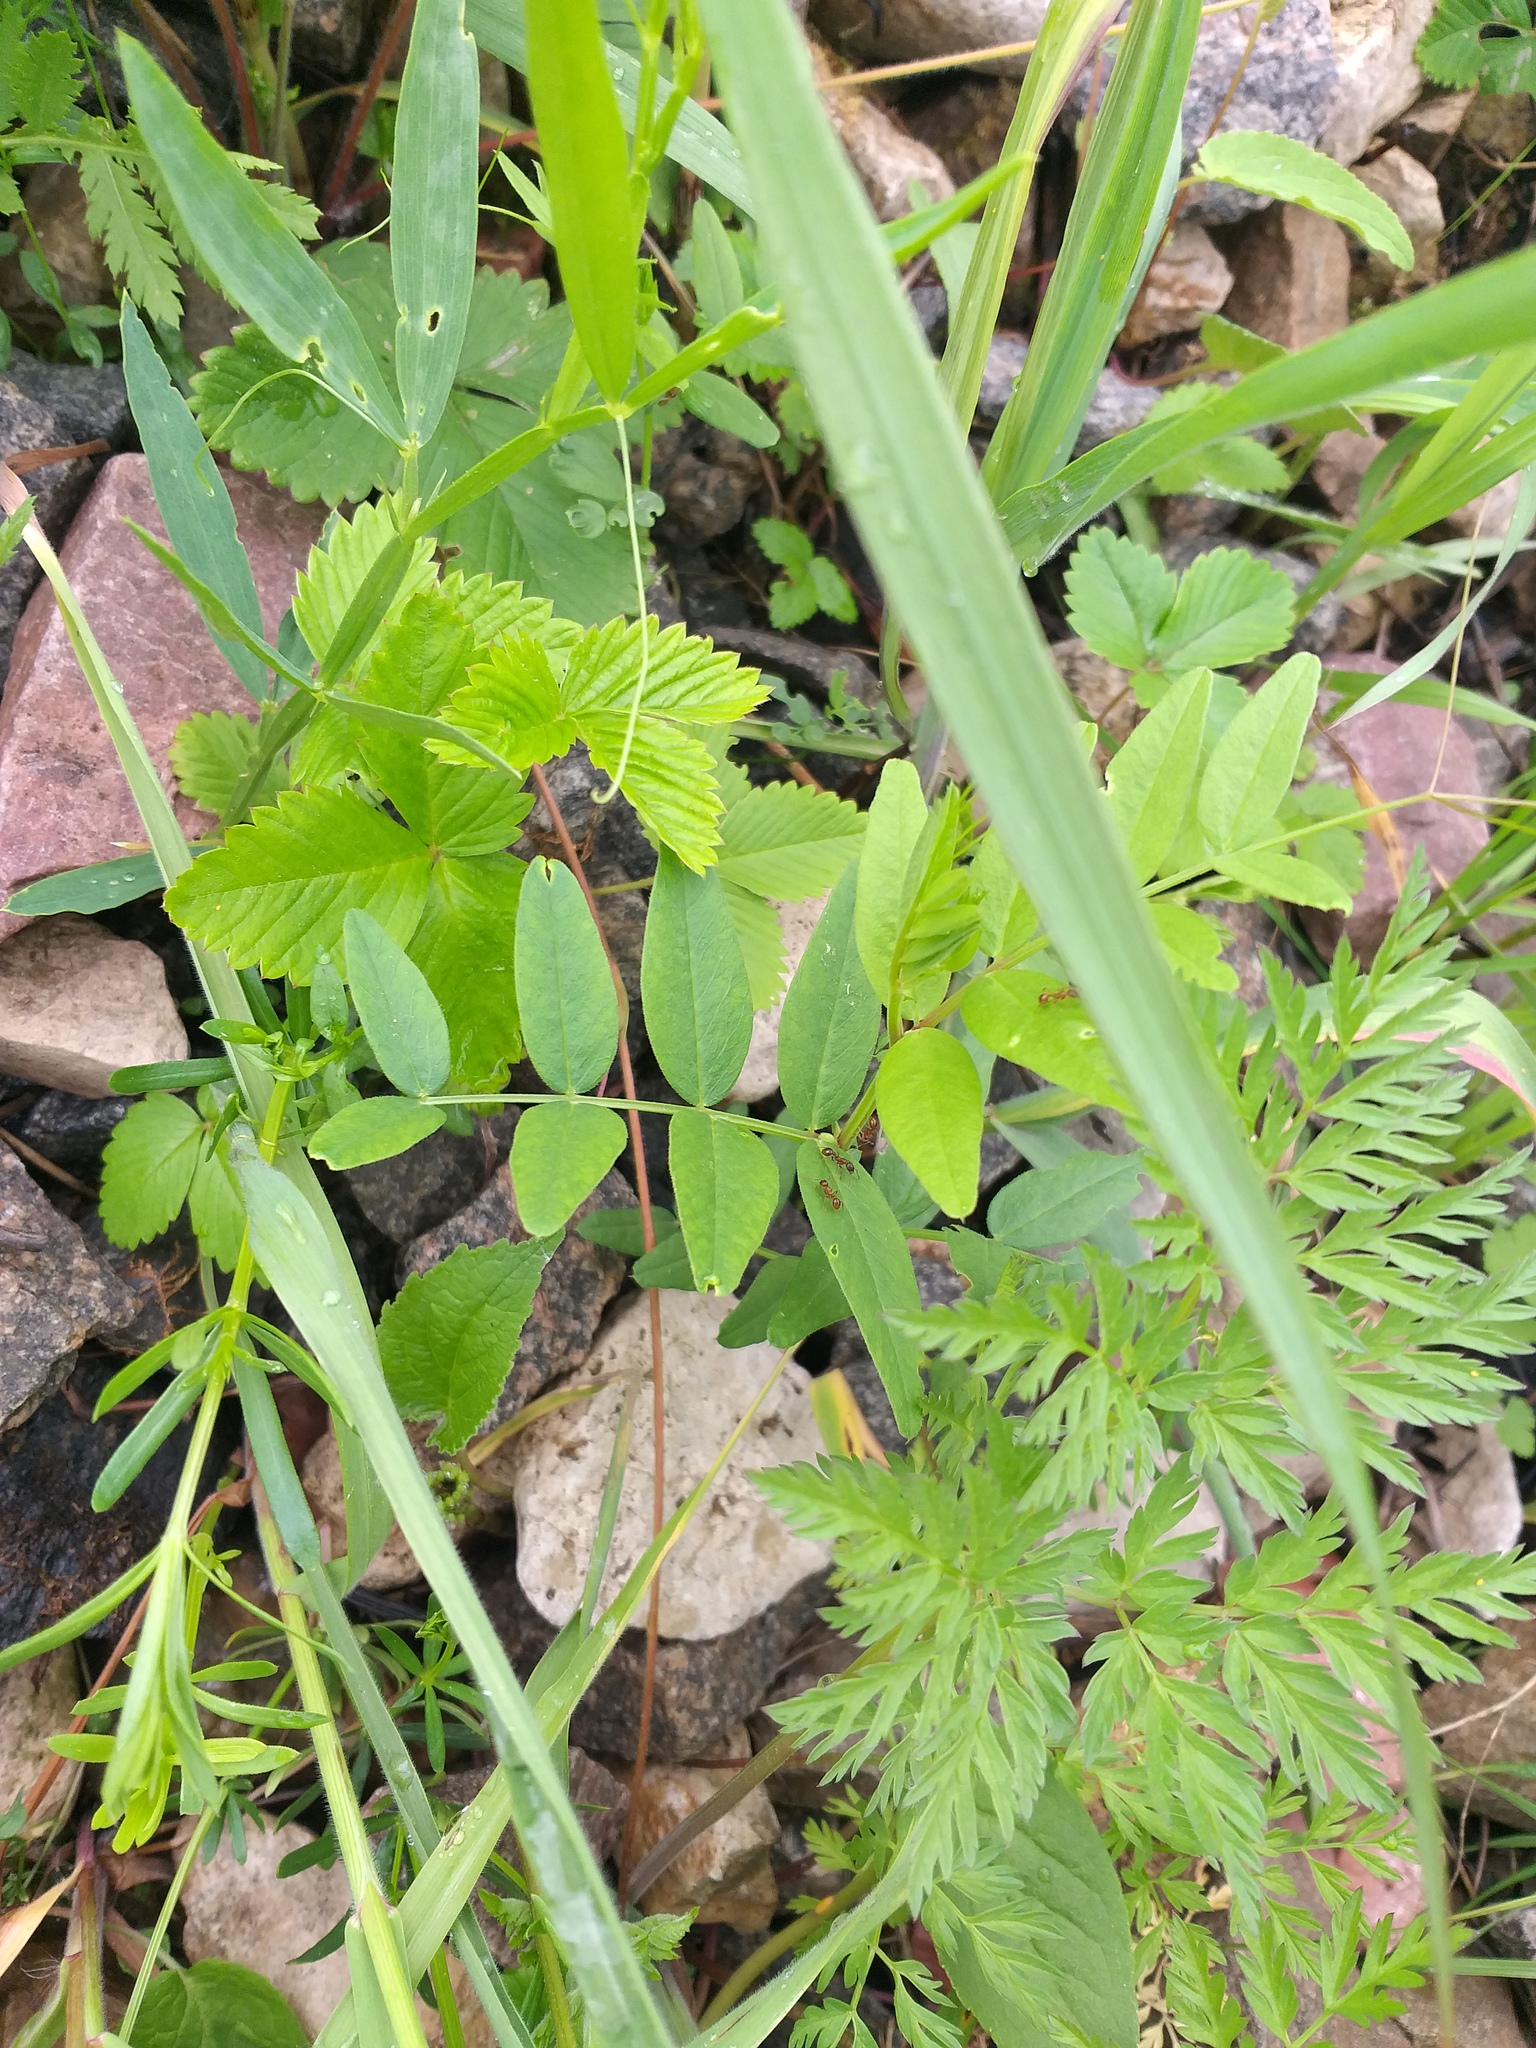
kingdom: Plantae
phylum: Tracheophyta
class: Magnoliopsida
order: Fabales
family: Fabaceae
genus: Vicia
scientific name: Vicia sepium
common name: Bush vetch
